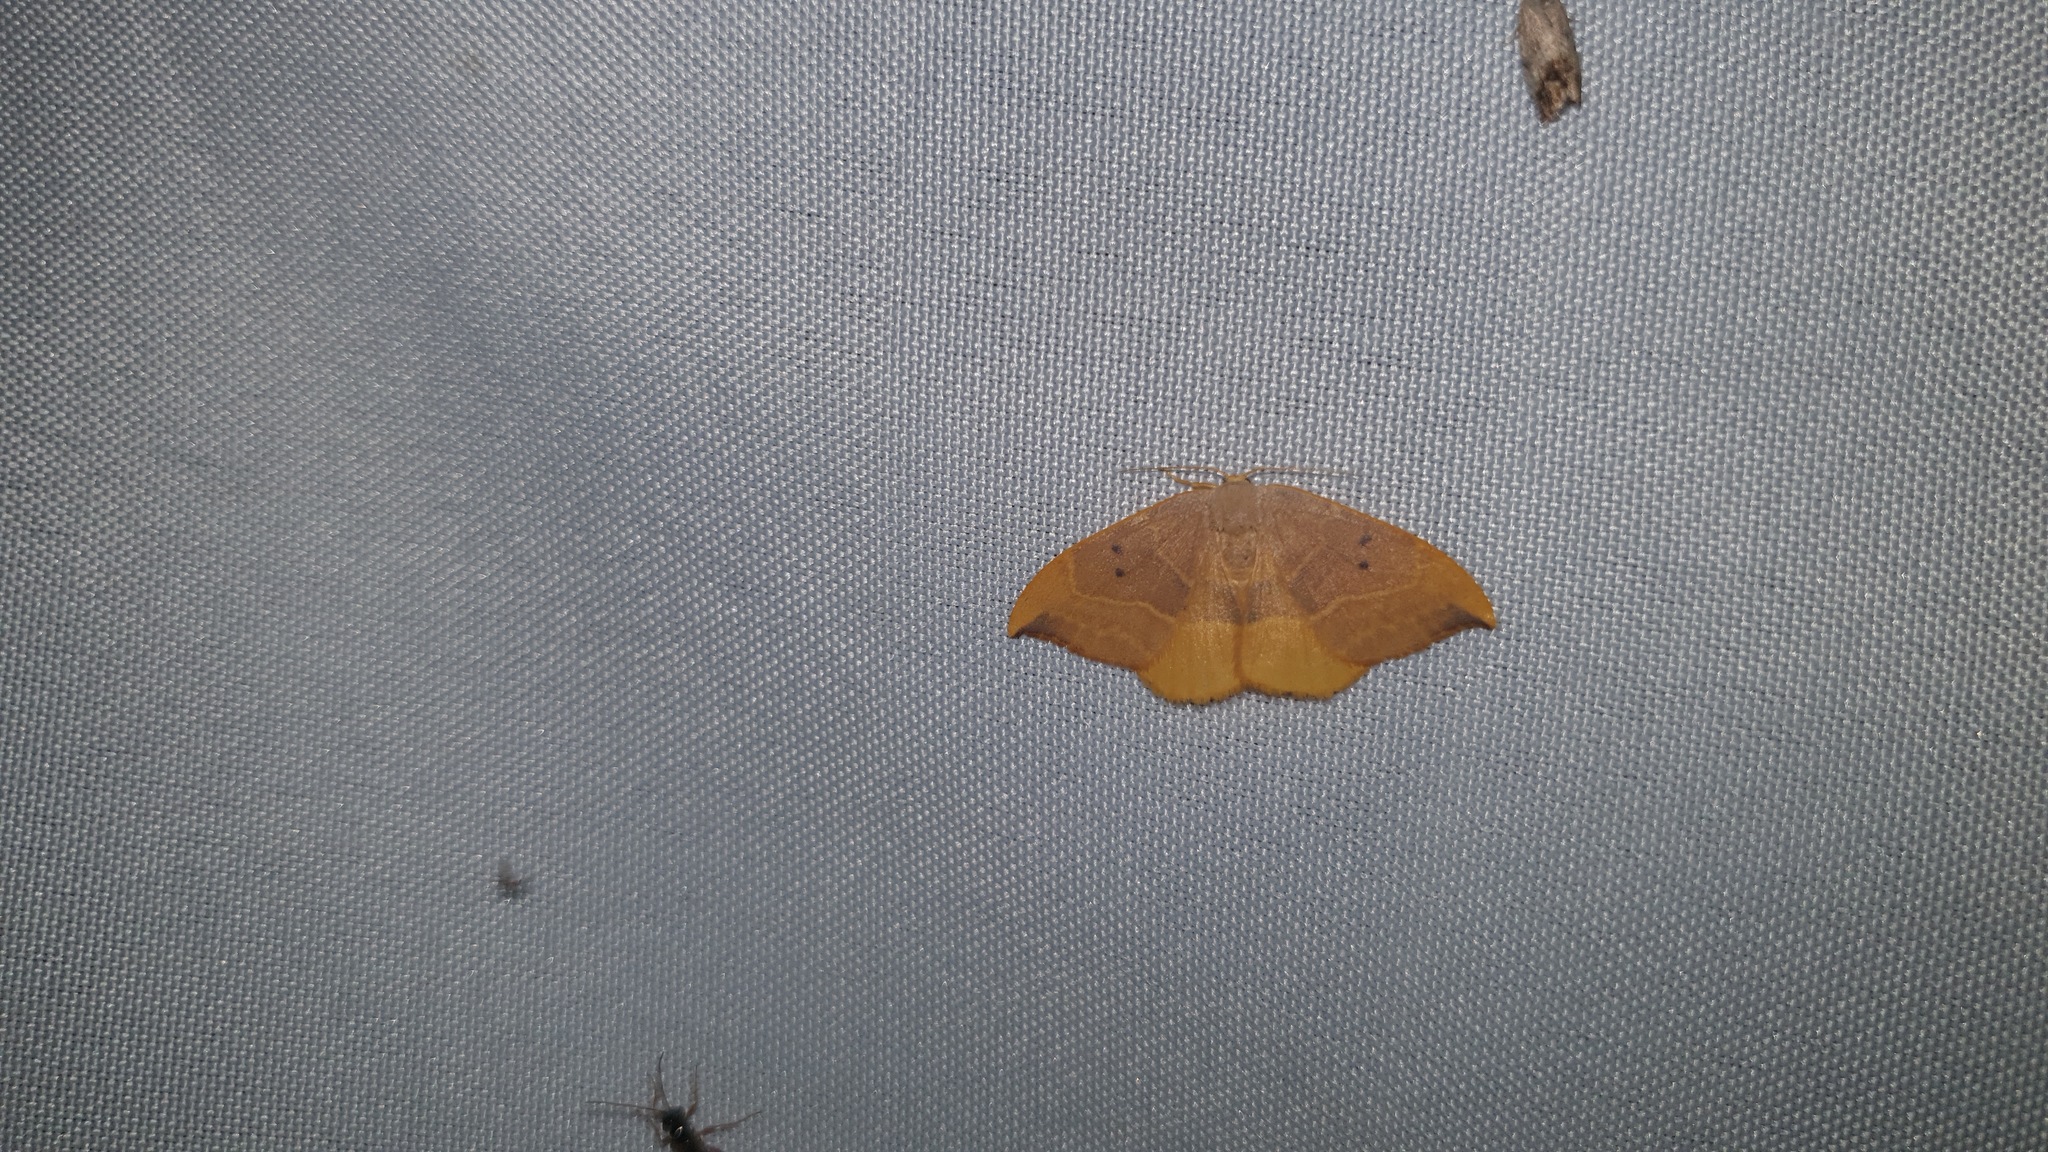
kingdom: Animalia
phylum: Arthropoda
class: Insecta
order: Lepidoptera
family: Drepanidae
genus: Watsonalla
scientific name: Watsonalla binaria
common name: Oak hook-tip
